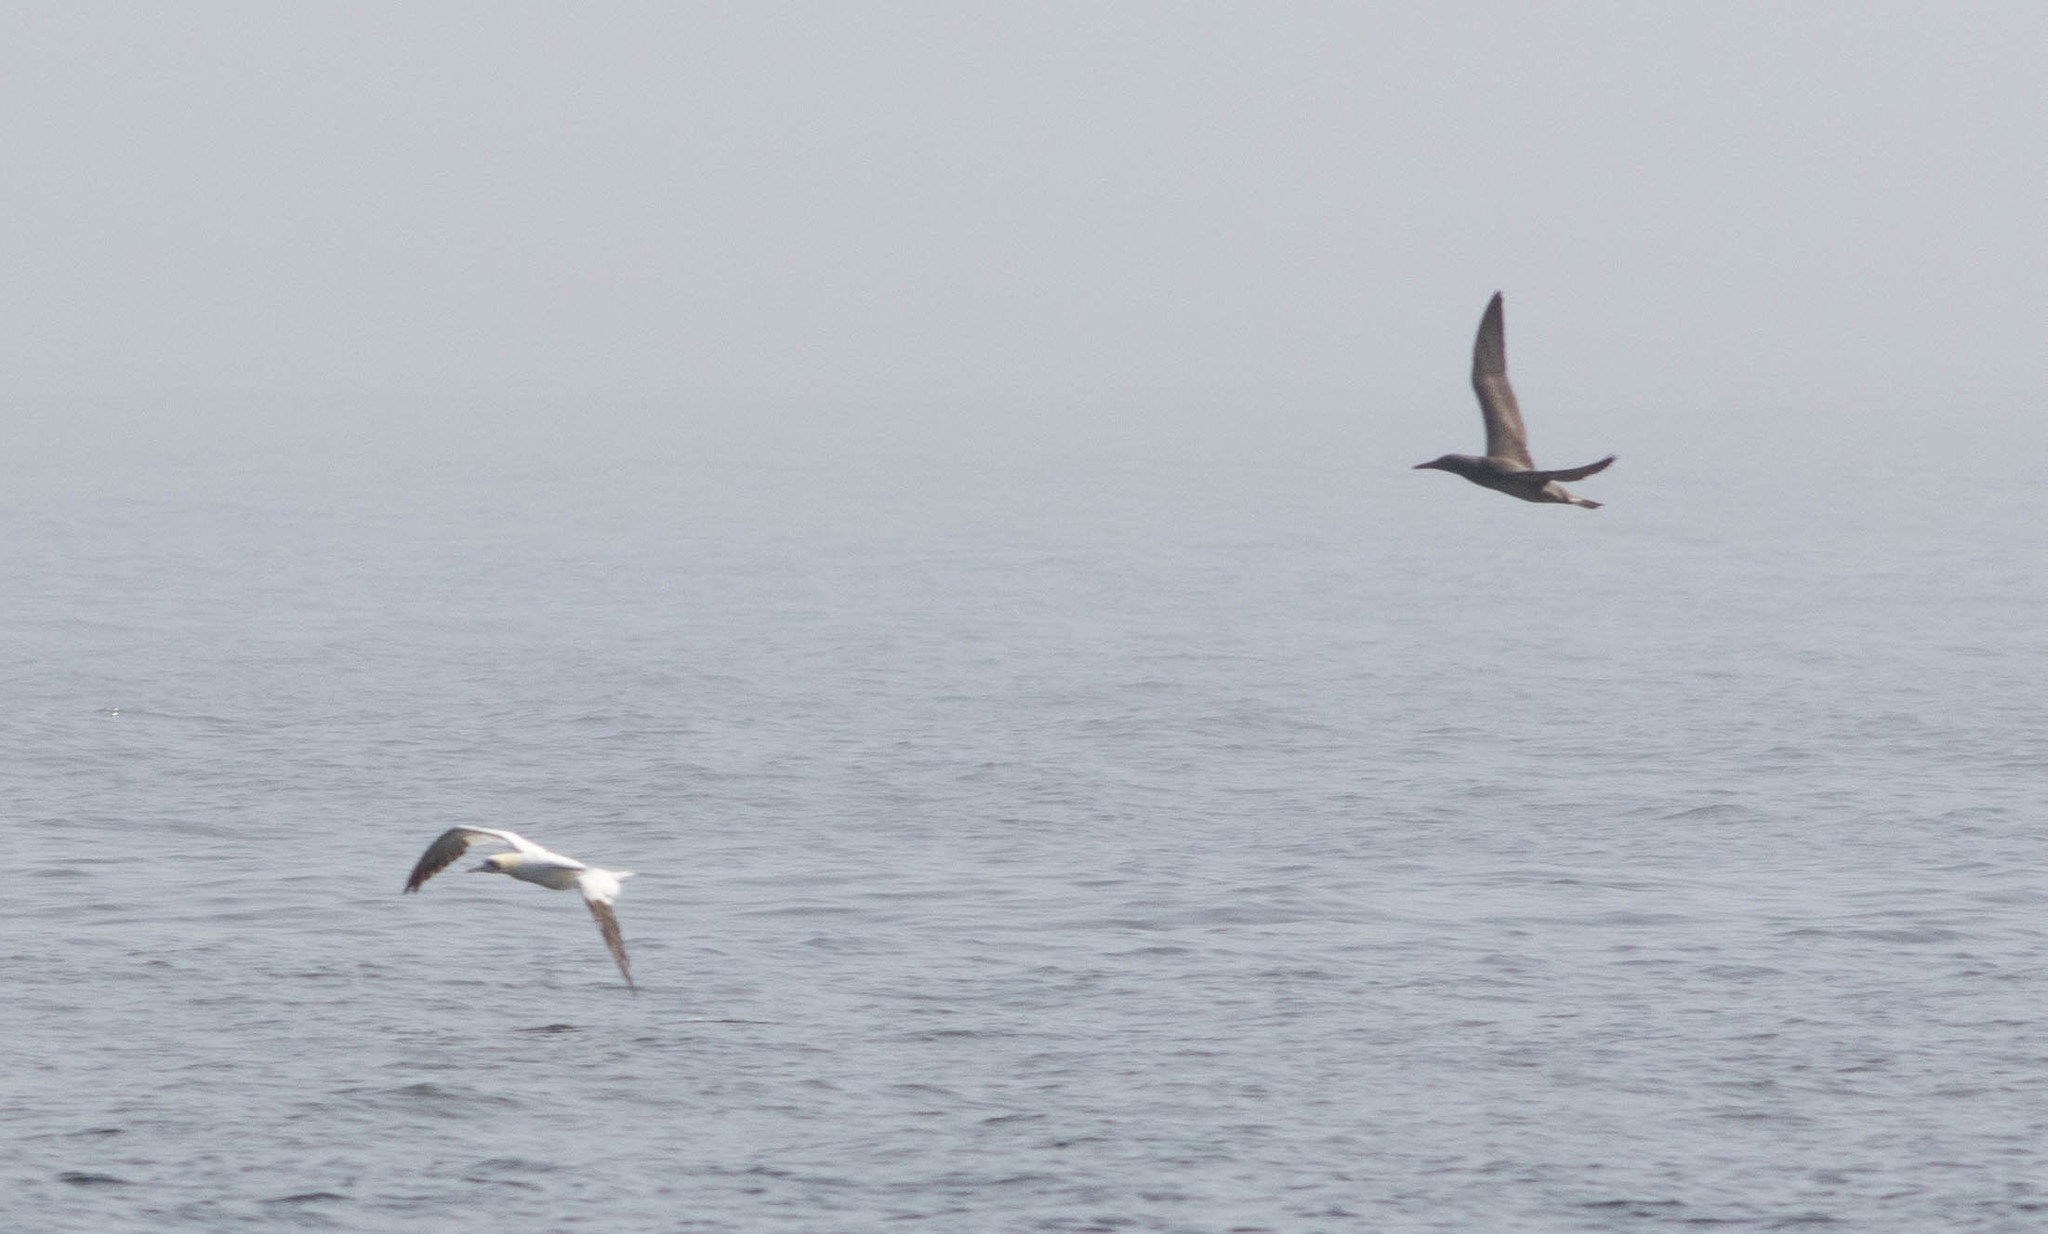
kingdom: Animalia
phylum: Chordata
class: Aves
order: Suliformes
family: Sulidae
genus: Morus
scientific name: Morus bassanus
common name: Northern gannet
